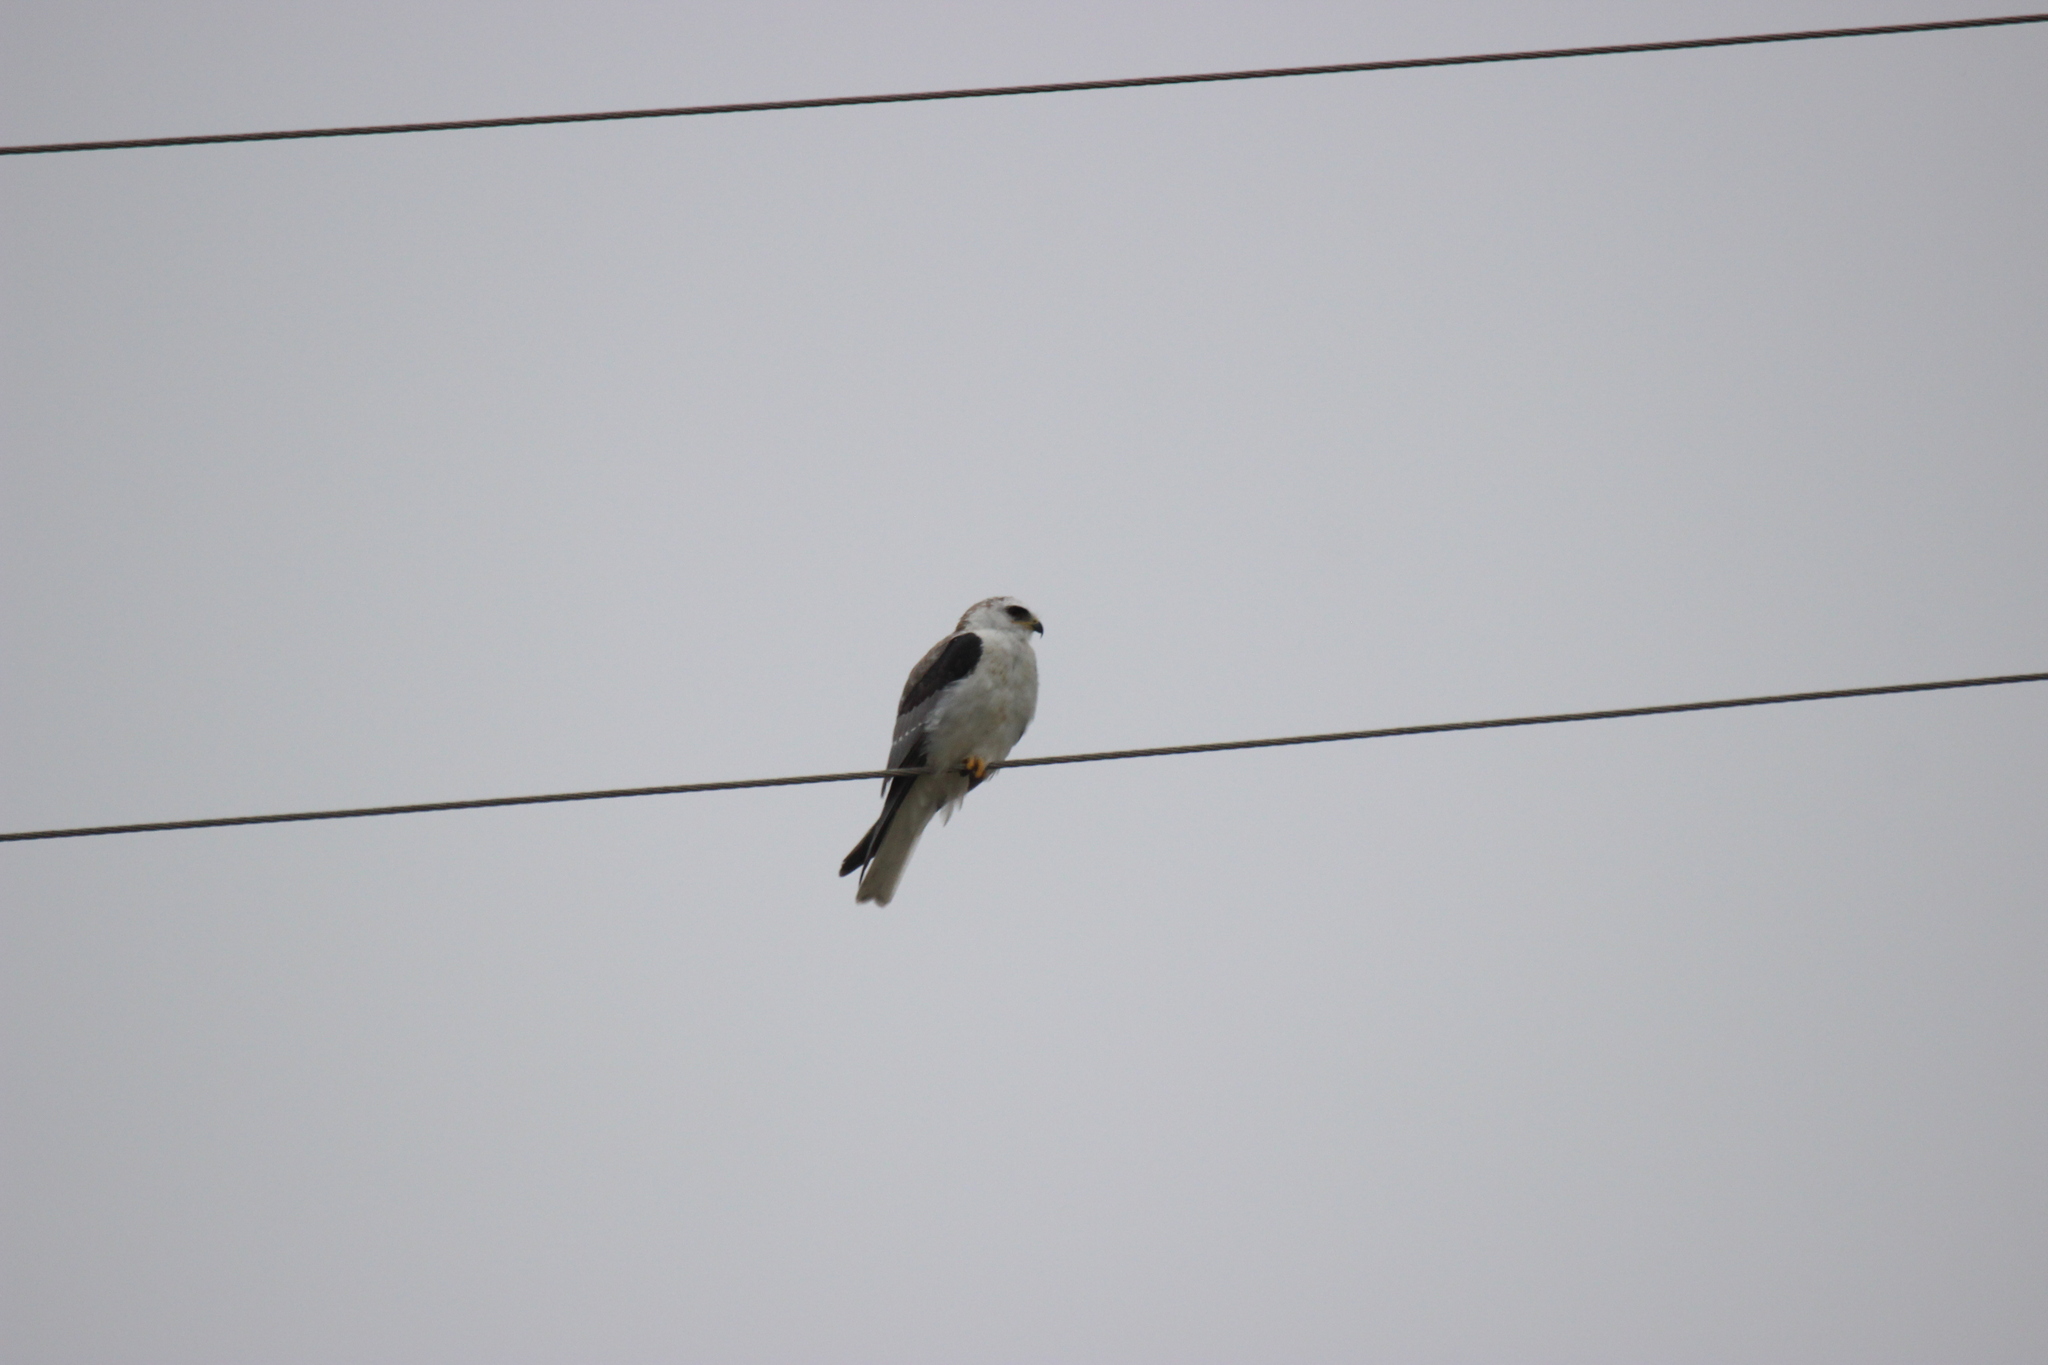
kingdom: Animalia
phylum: Chordata
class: Aves
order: Accipitriformes
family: Accipitridae
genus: Elanus
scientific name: Elanus leucurus
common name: White-tailed kite
